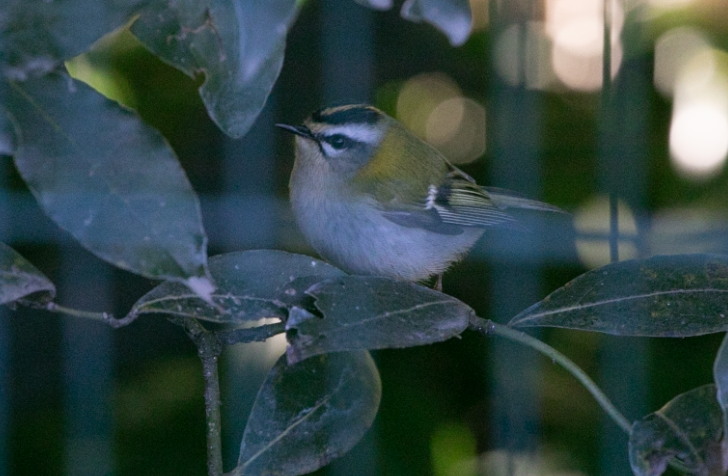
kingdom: Animalia
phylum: Chordata
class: Aves
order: Passeriformes
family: Regulidae
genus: Regulus
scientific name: Regulus ignicapilla
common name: Firecrest
